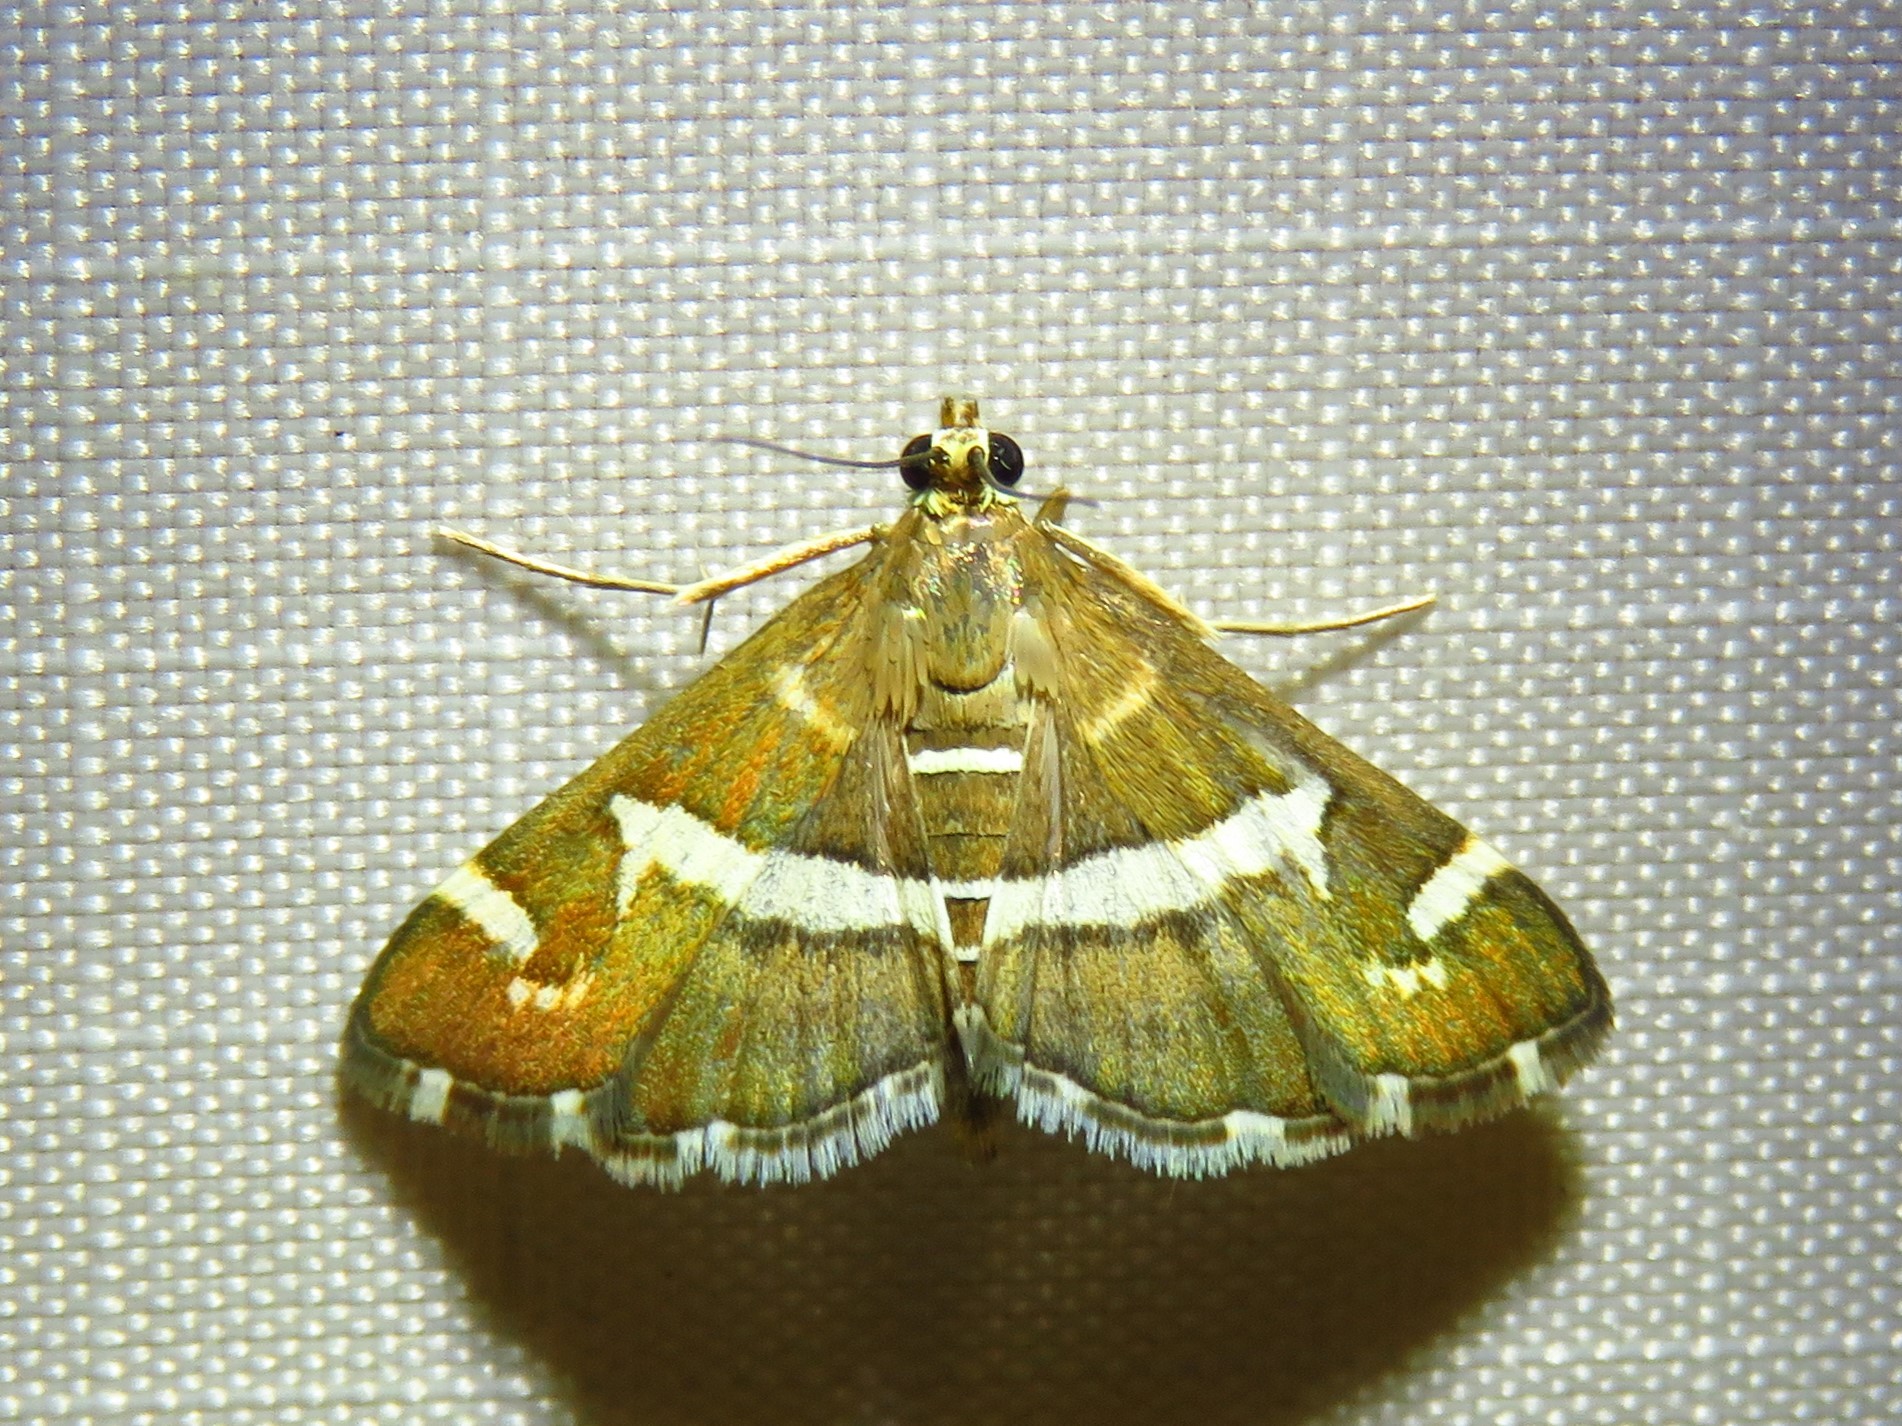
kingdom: Animalia
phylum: Arthropoda
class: Insecta
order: Lepidoptera
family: Crambidae
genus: Spoladea
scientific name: Spoladea recurvalis
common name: Beet webworm moth
